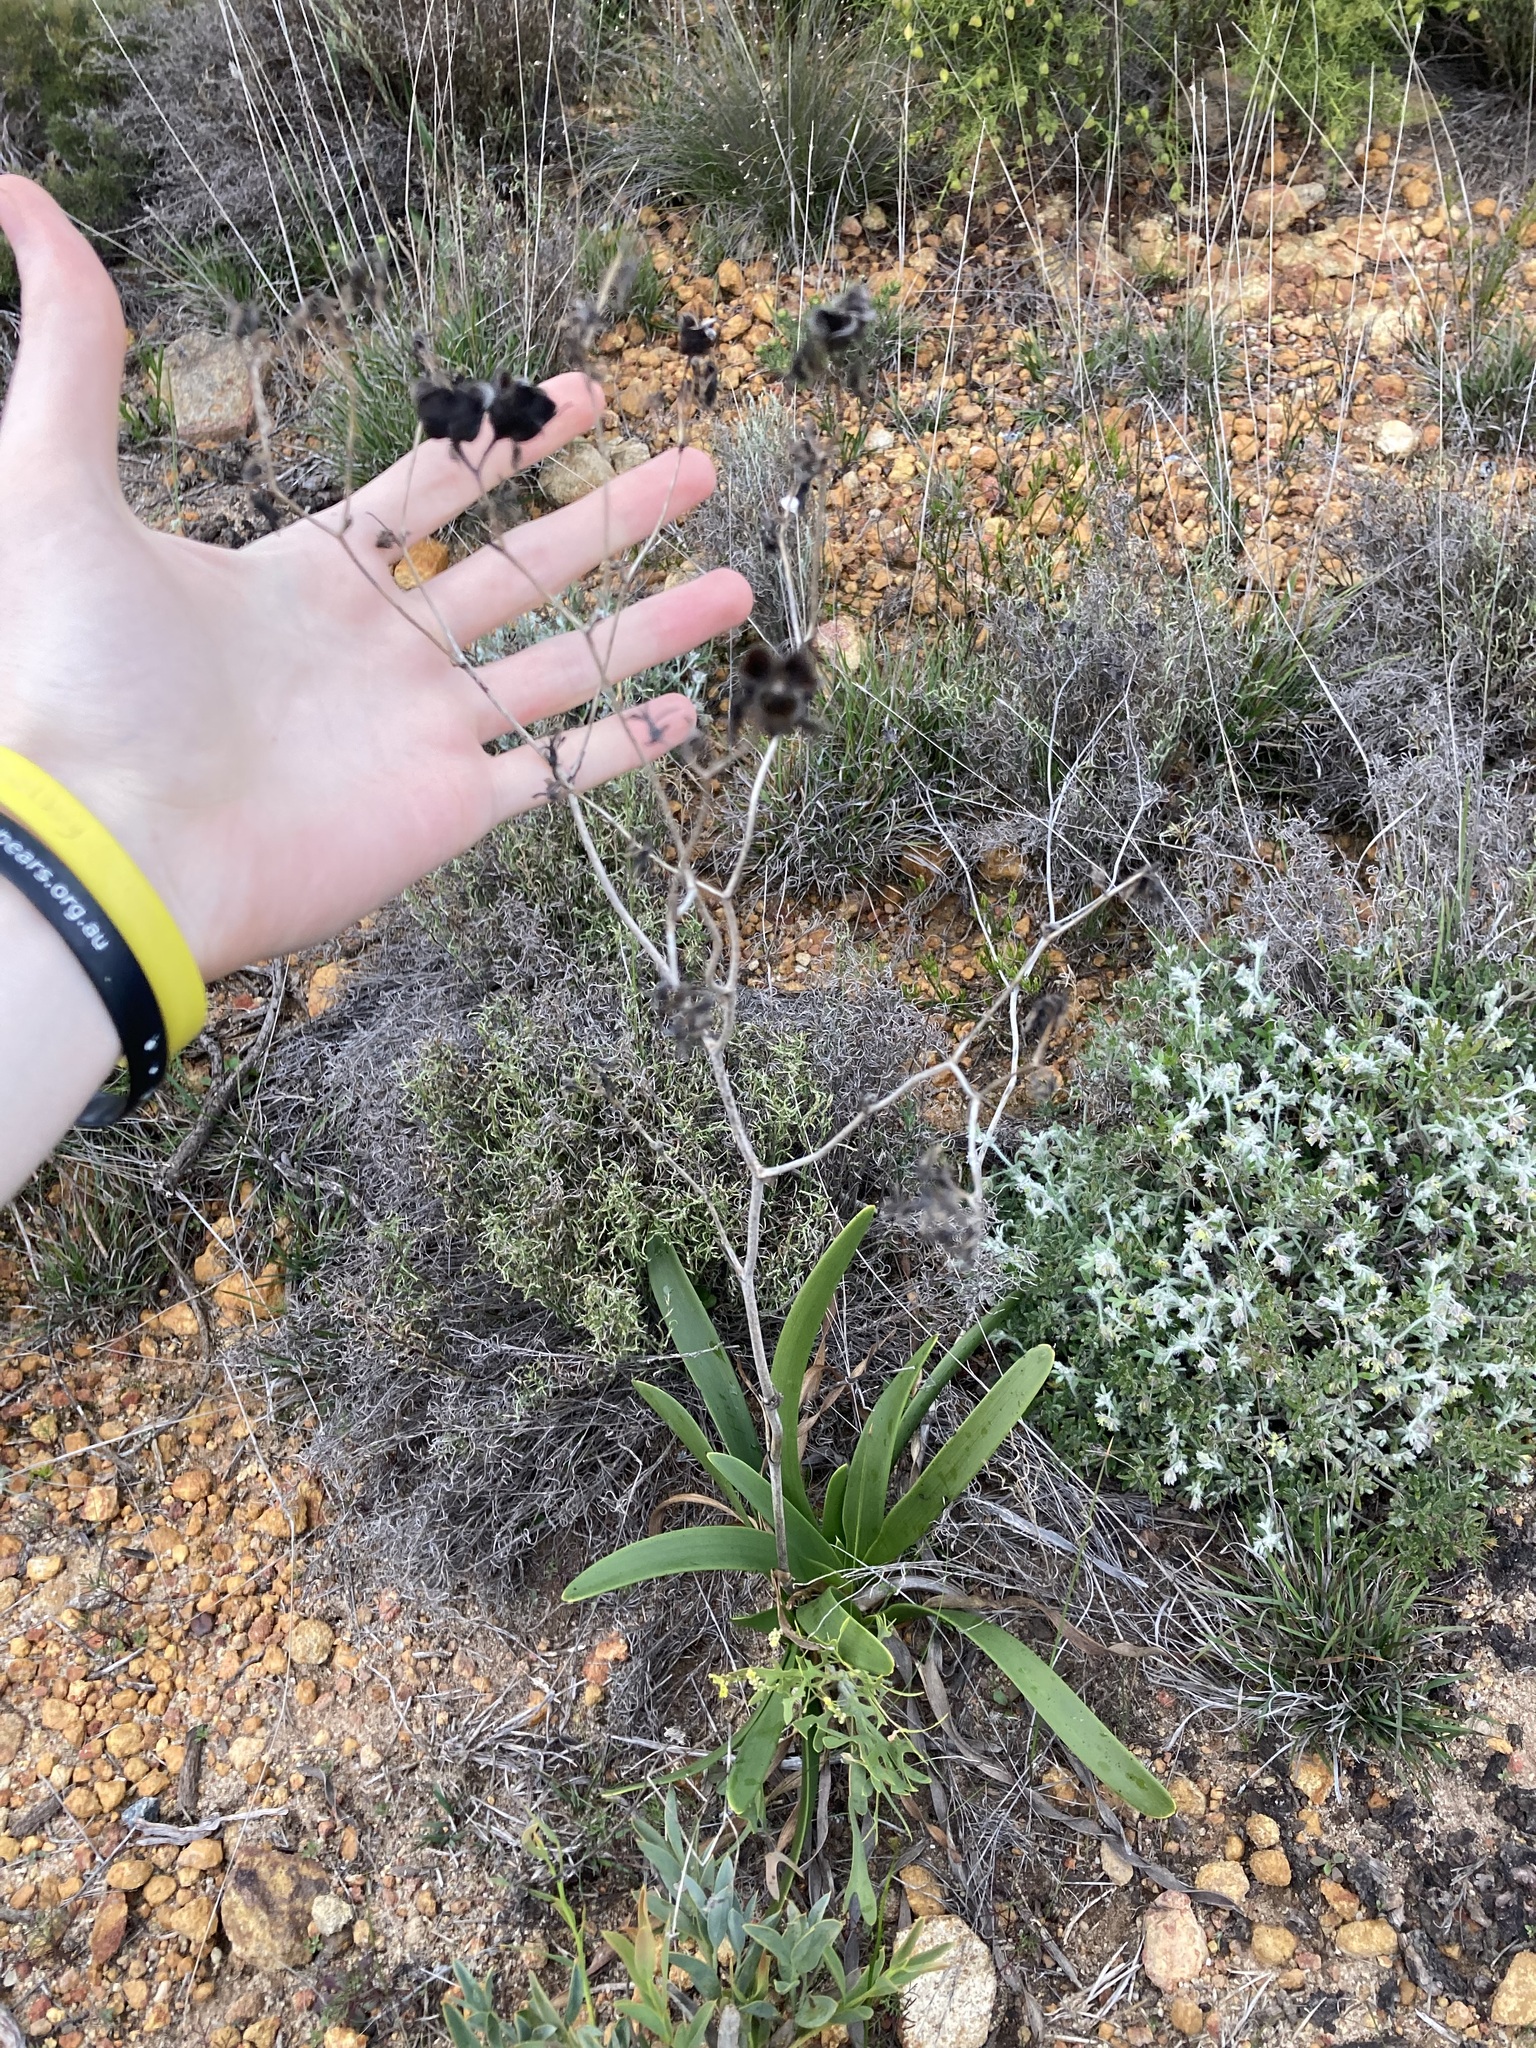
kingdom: Plantae
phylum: Tracheophyta
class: Liliopsida
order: Commelinales
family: Haemodoraceae
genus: Haemodorum
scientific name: Haemodorum simulans
